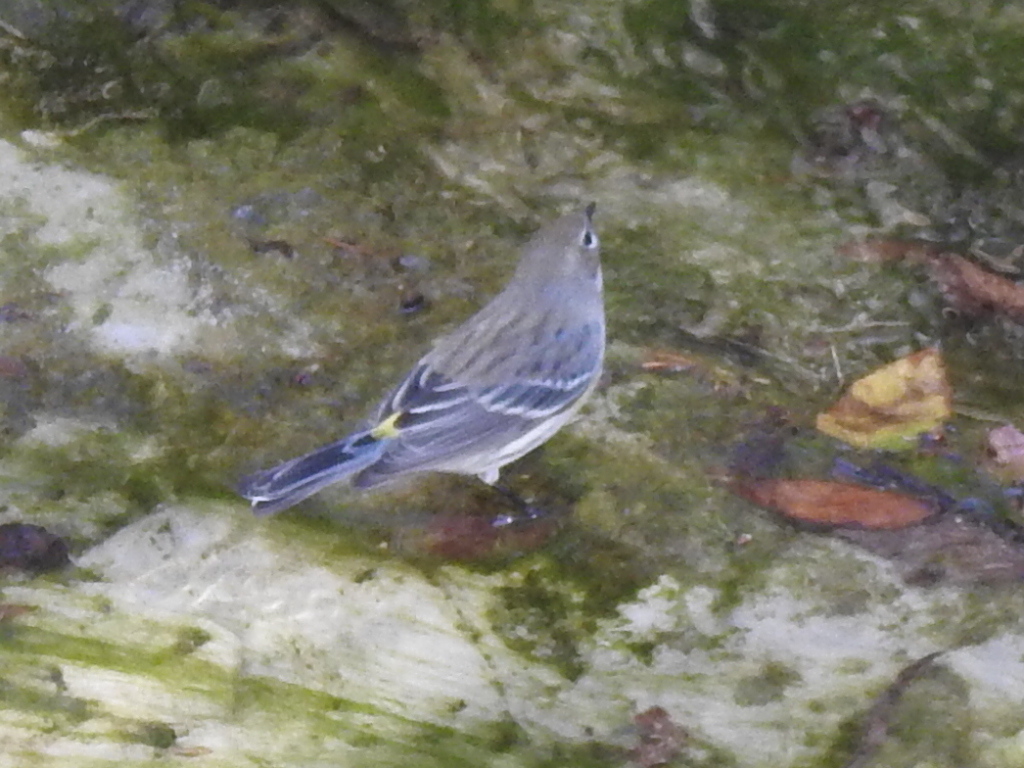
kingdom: Animalia
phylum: Chordata
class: Aves
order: Passeriformes
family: Parulidae
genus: Setophaga
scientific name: Setophaga coronata
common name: Myrtle warbler
